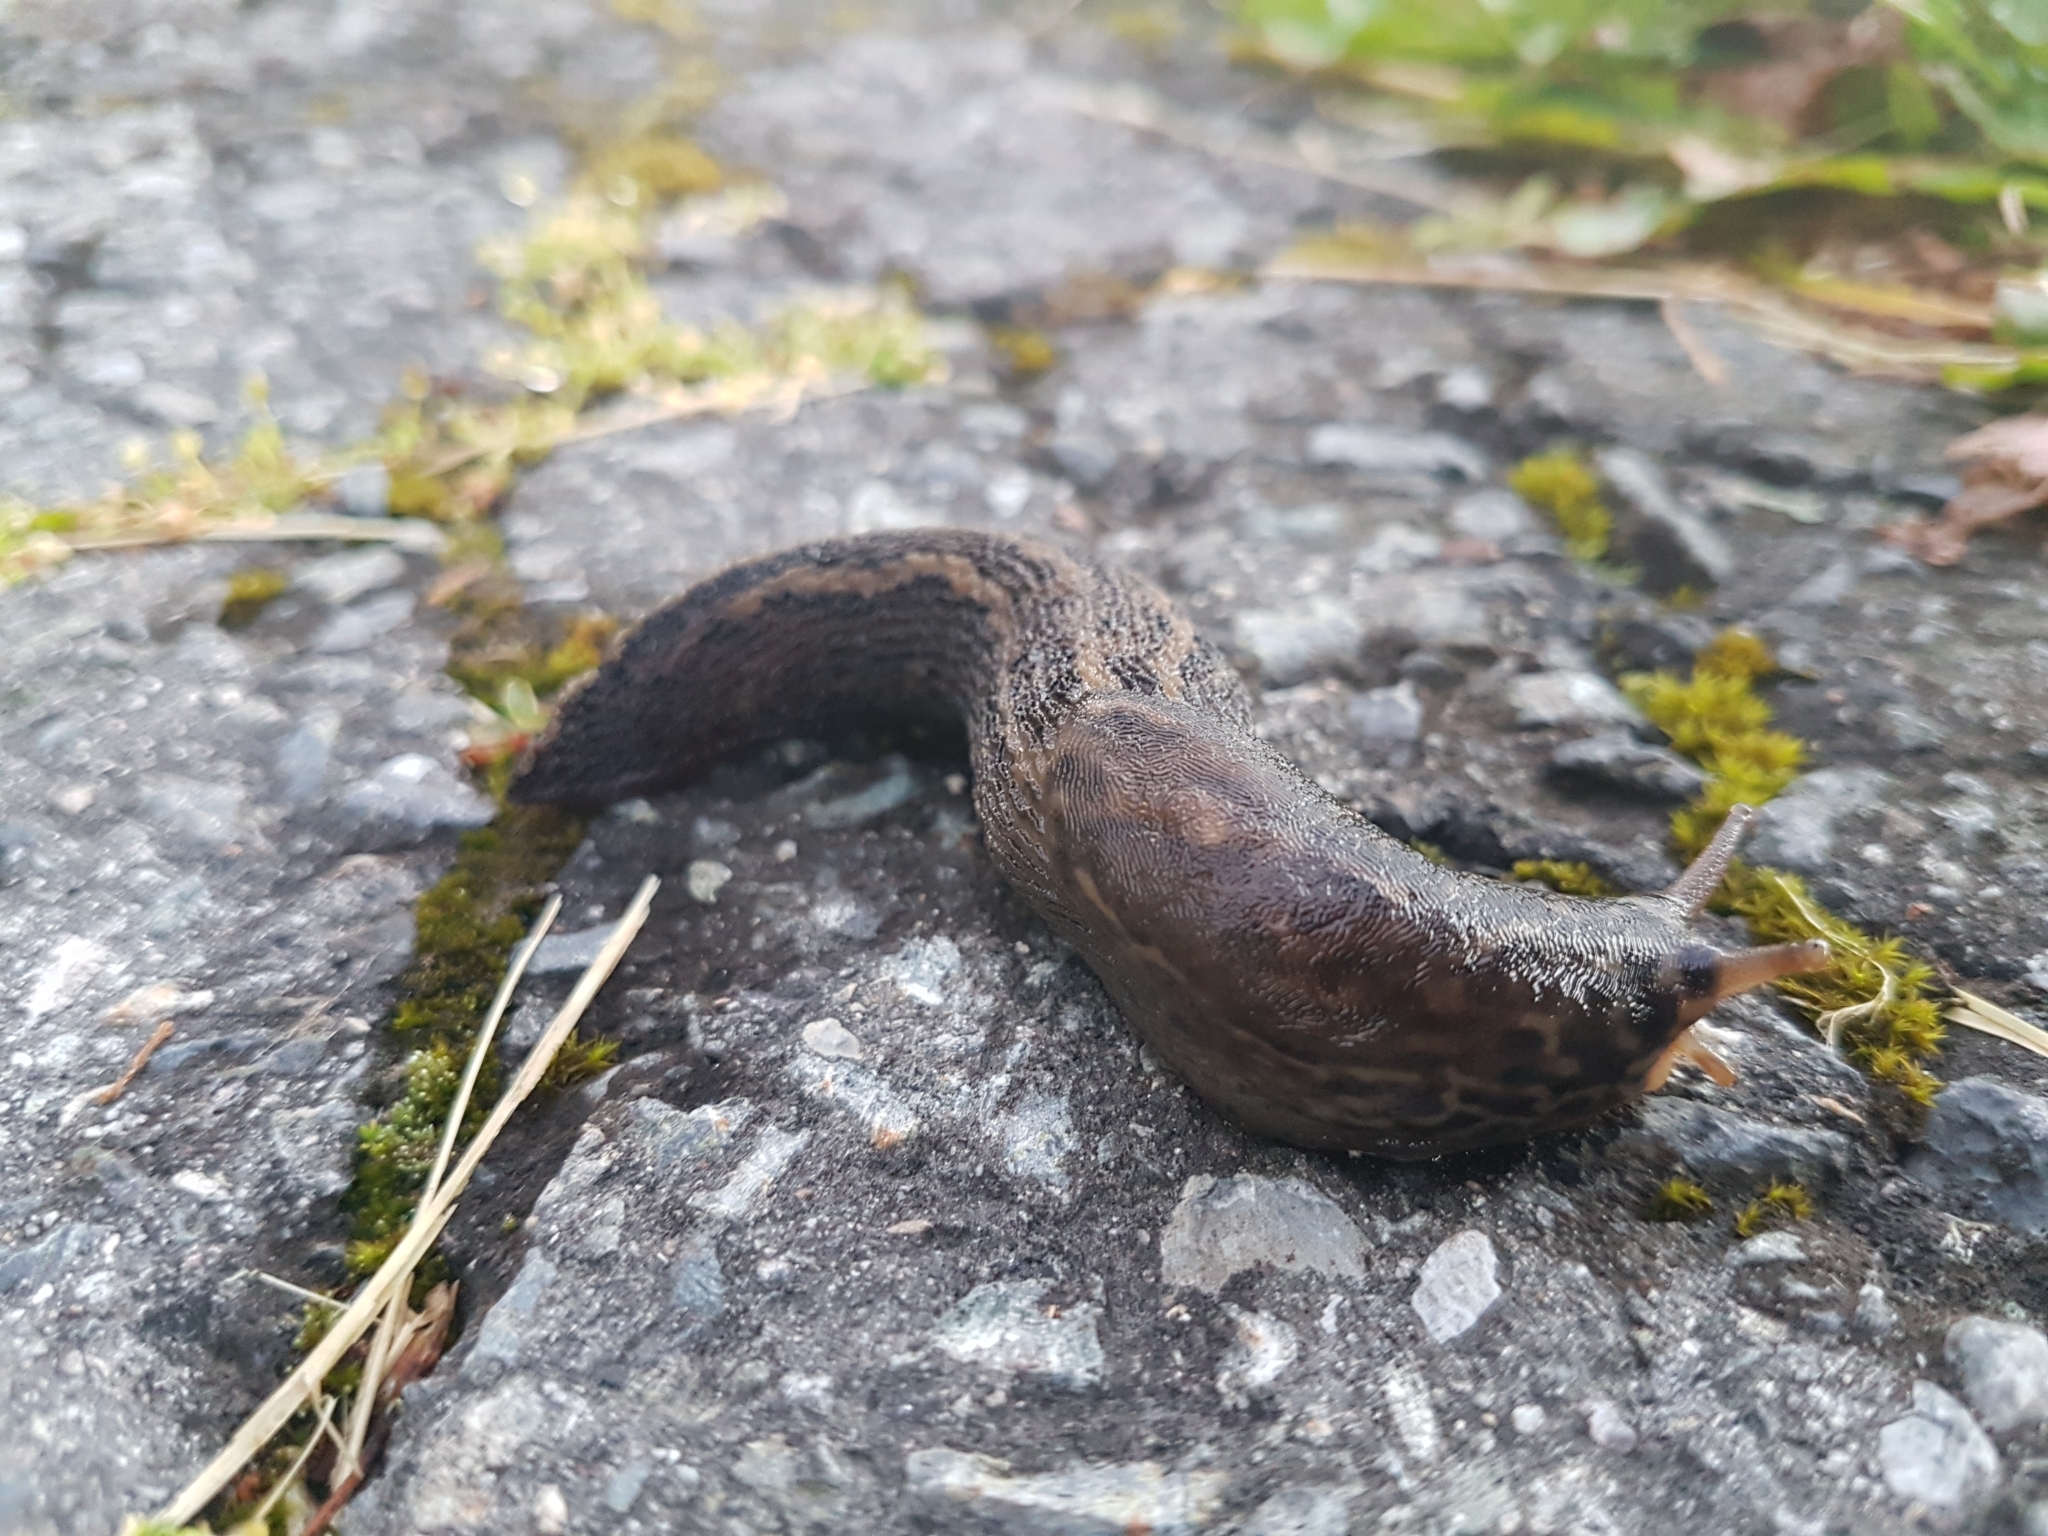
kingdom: Animalia
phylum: Mollusca
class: Gastropoda
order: Stylommatophora
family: Limacidae
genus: Limax
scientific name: Limax maximus
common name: Great grey slug
